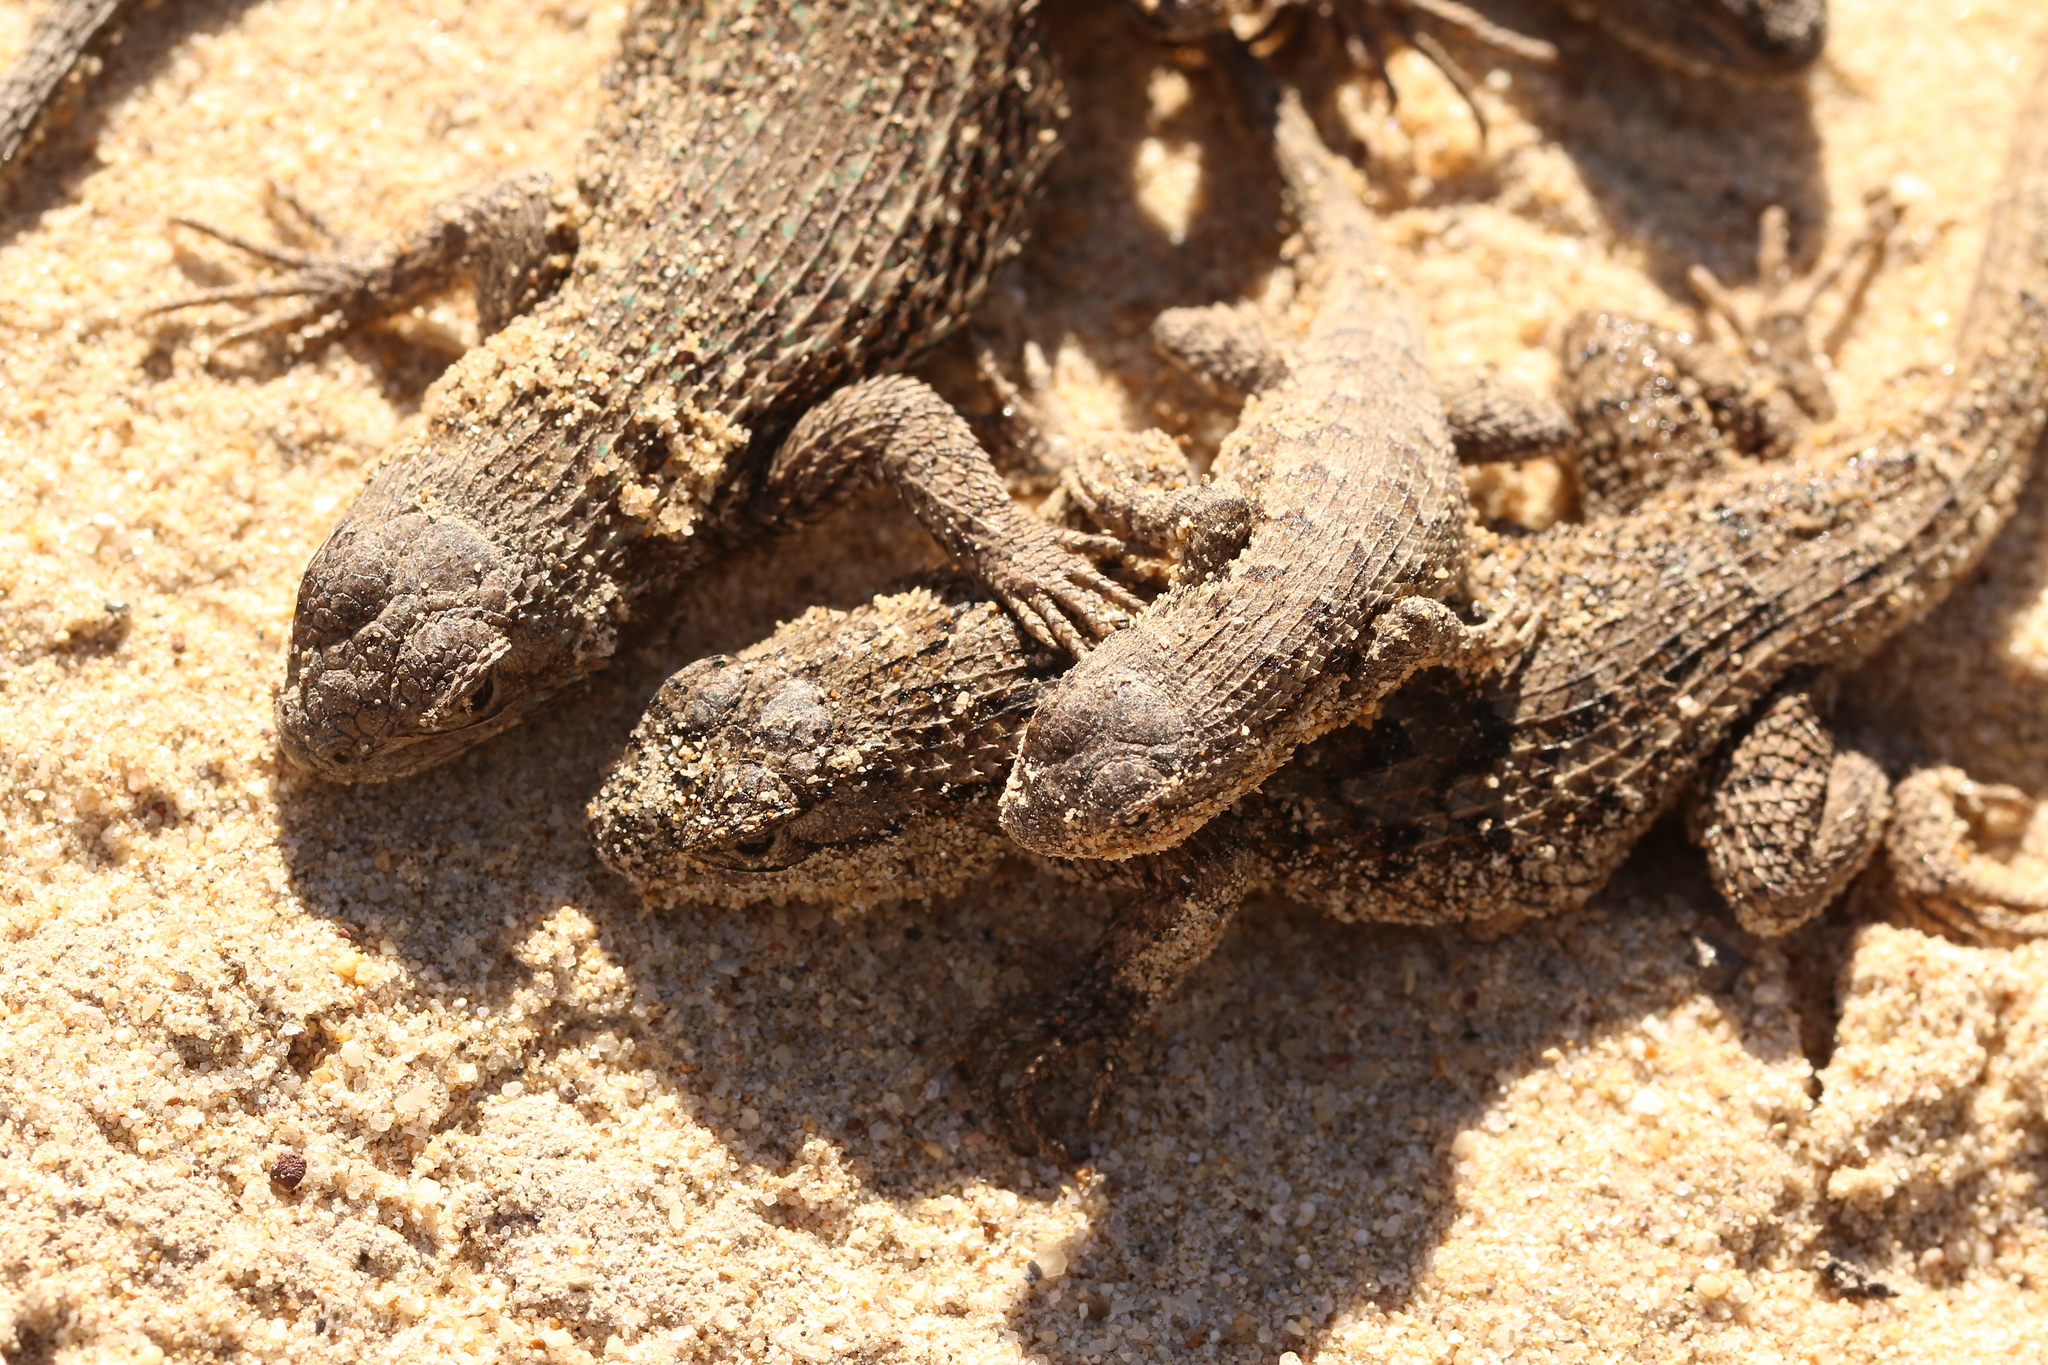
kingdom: Animalia
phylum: Chordata
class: Squamata
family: Phrynosomatidae
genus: Sceloporus
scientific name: Sceloporus occidentalis
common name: Western fence lizard
